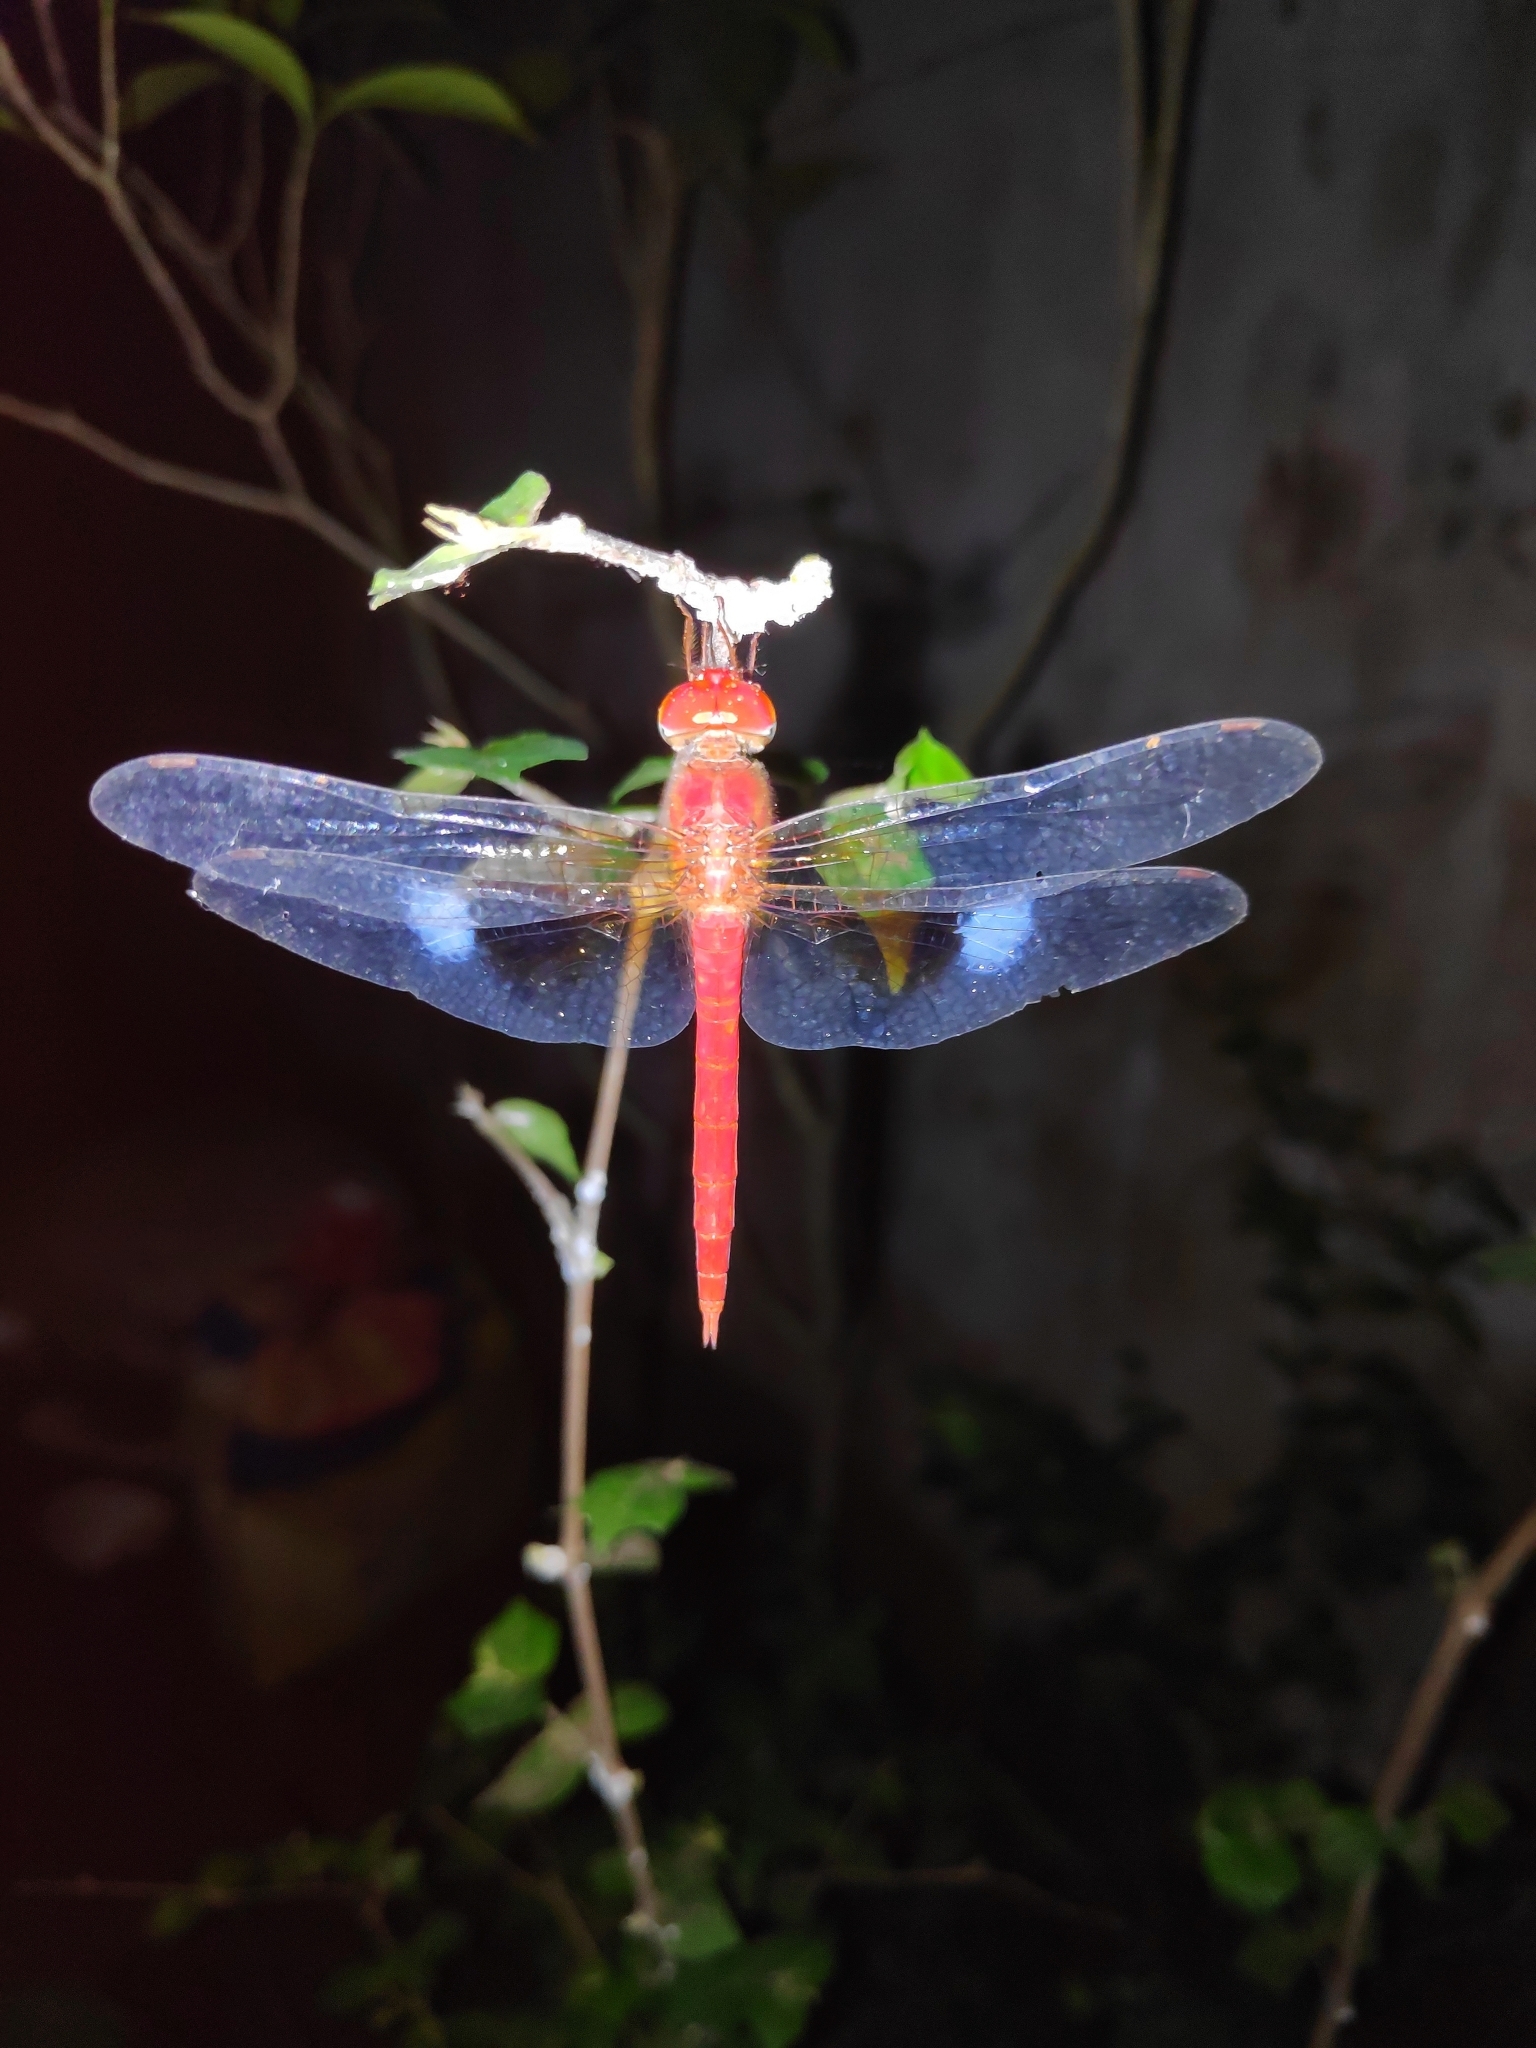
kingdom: Animalia
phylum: Arthropoda
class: Insecta
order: Odonata
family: Libellulidae
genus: Tholymis
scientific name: Tholymis tillarga
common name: Coral-tailed cloud wing
